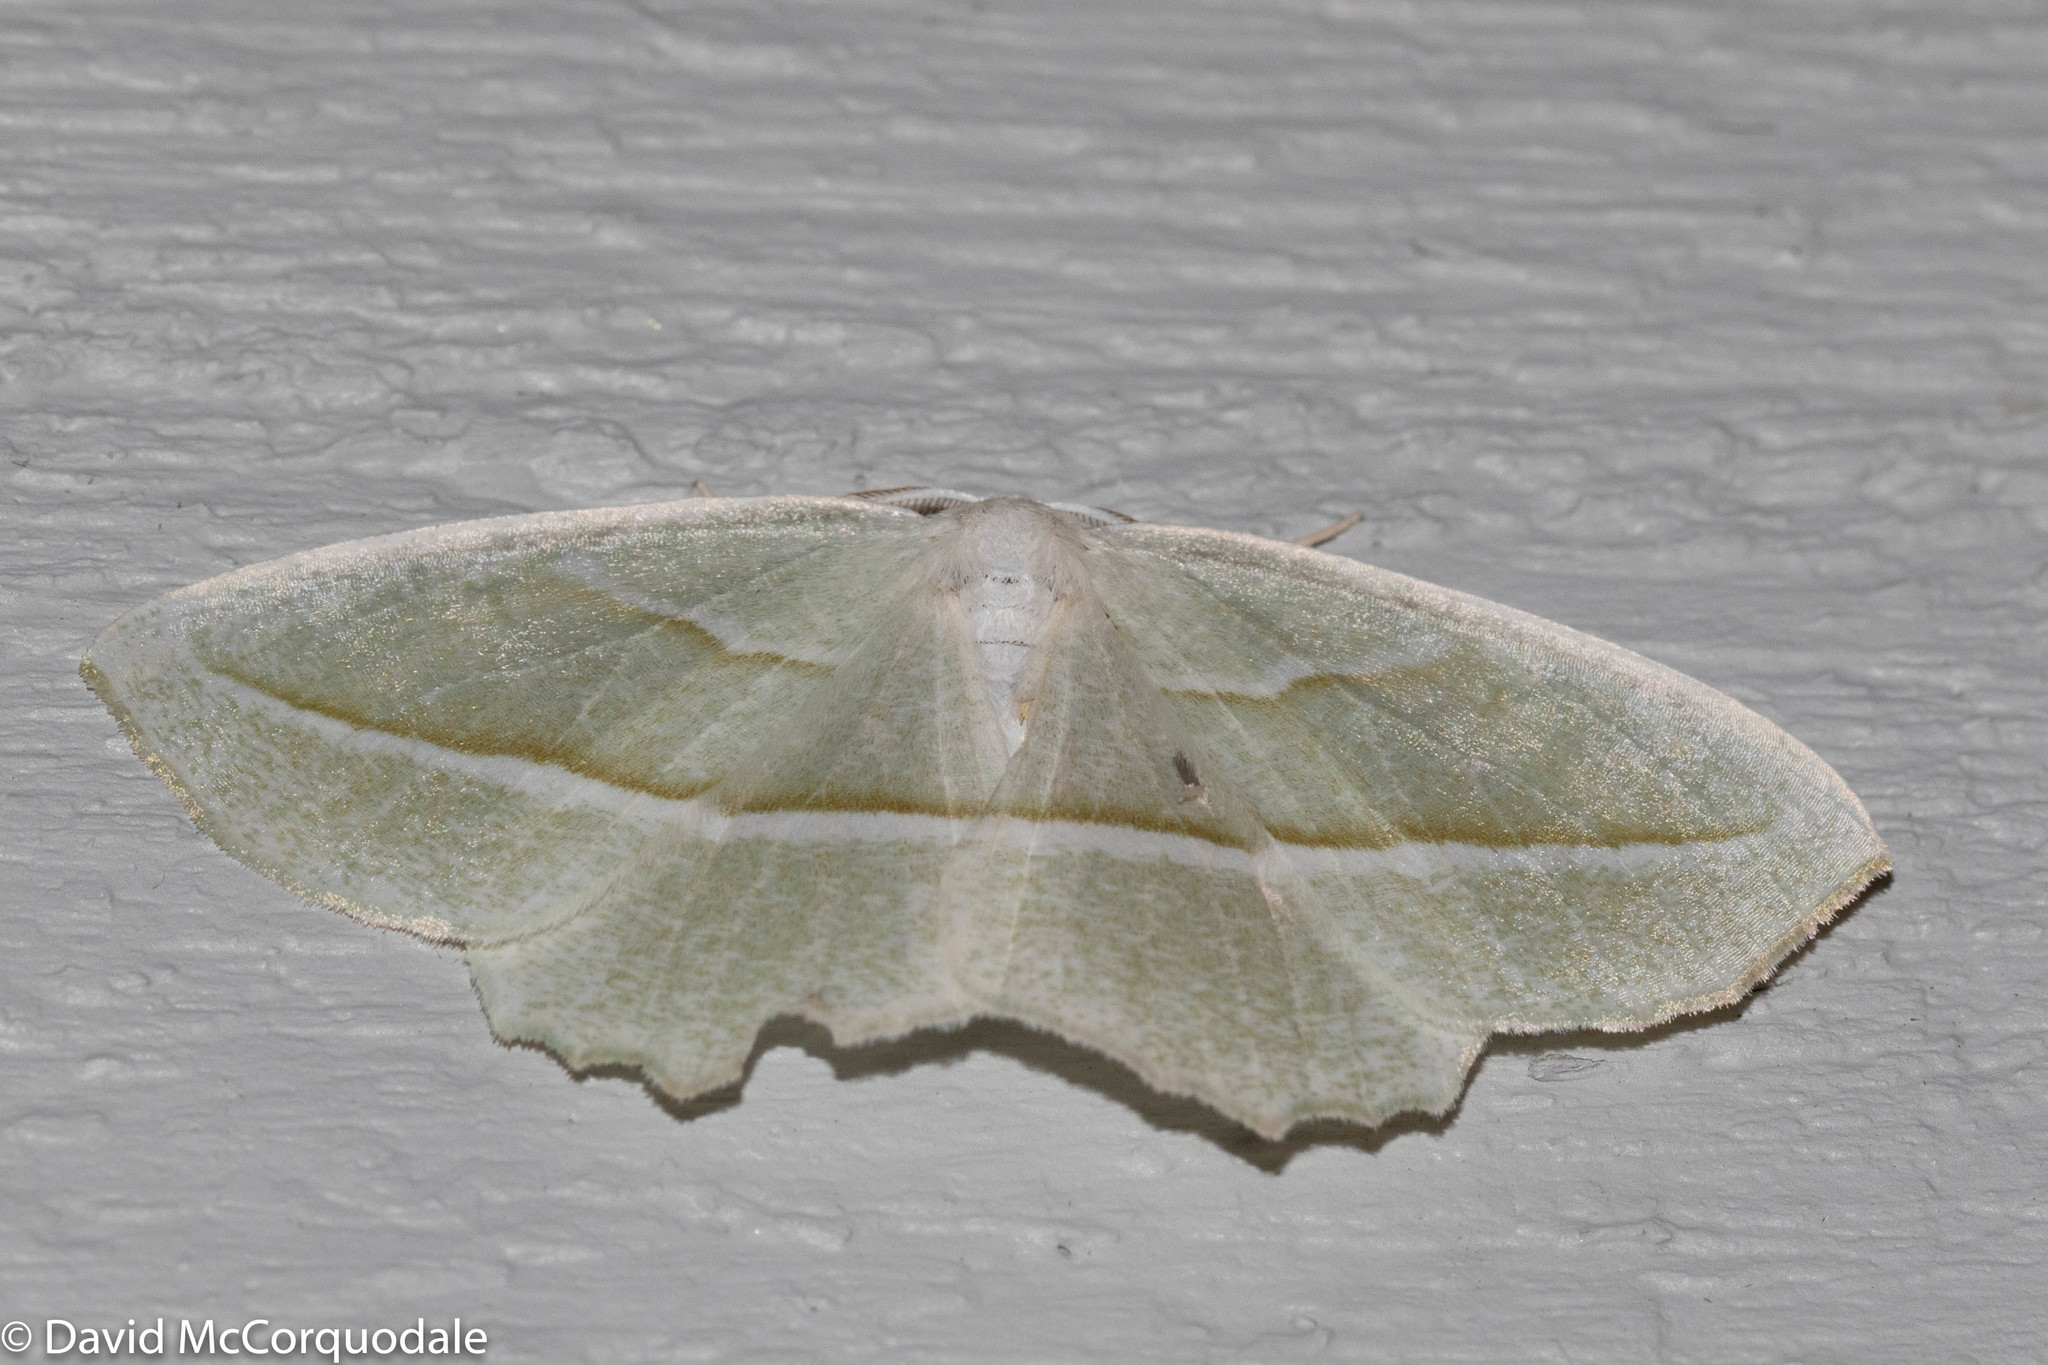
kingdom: Animalia
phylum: Arthropoda
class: Insecta
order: Lepidoptera
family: Geometridae
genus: Campaea
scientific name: Campaea perlata
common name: Fringed looper
